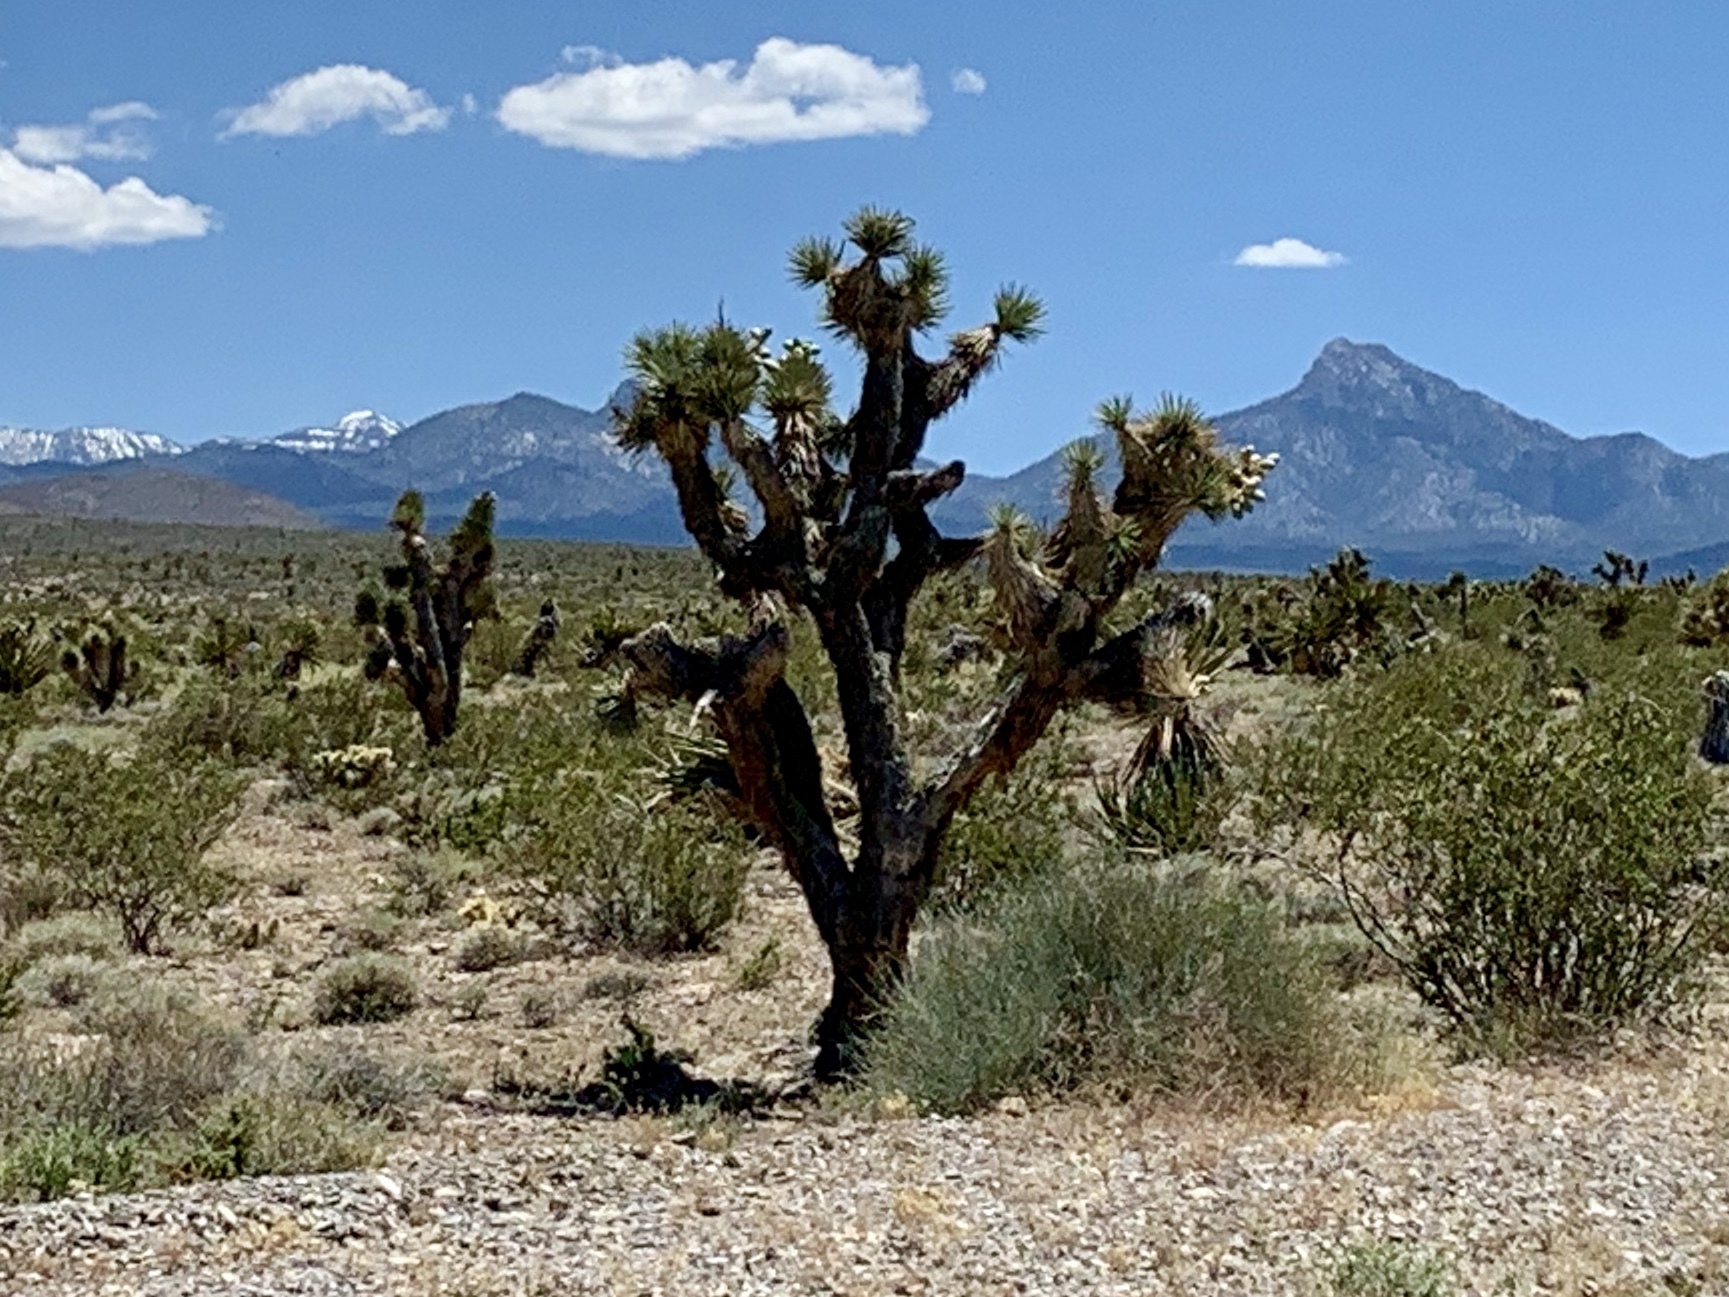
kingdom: Plantae
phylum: Tracheophyta
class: Liliopsida
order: Asparagales
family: Asparagaceae
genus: Yucca
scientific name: Yucca brevifolia
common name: Joshua tree
